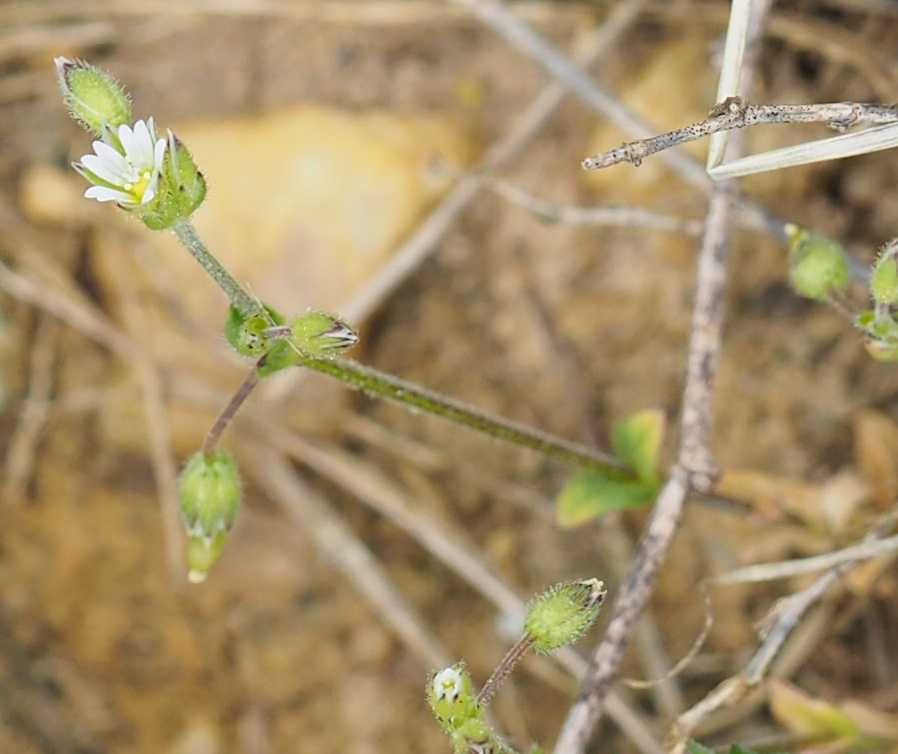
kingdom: Plantae
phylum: Tracheophyta
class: Magnoliopsida
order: Caryophyllales
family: Caryophyllaceae
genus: Stellaria
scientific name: Stellaria media
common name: Common chickweed
